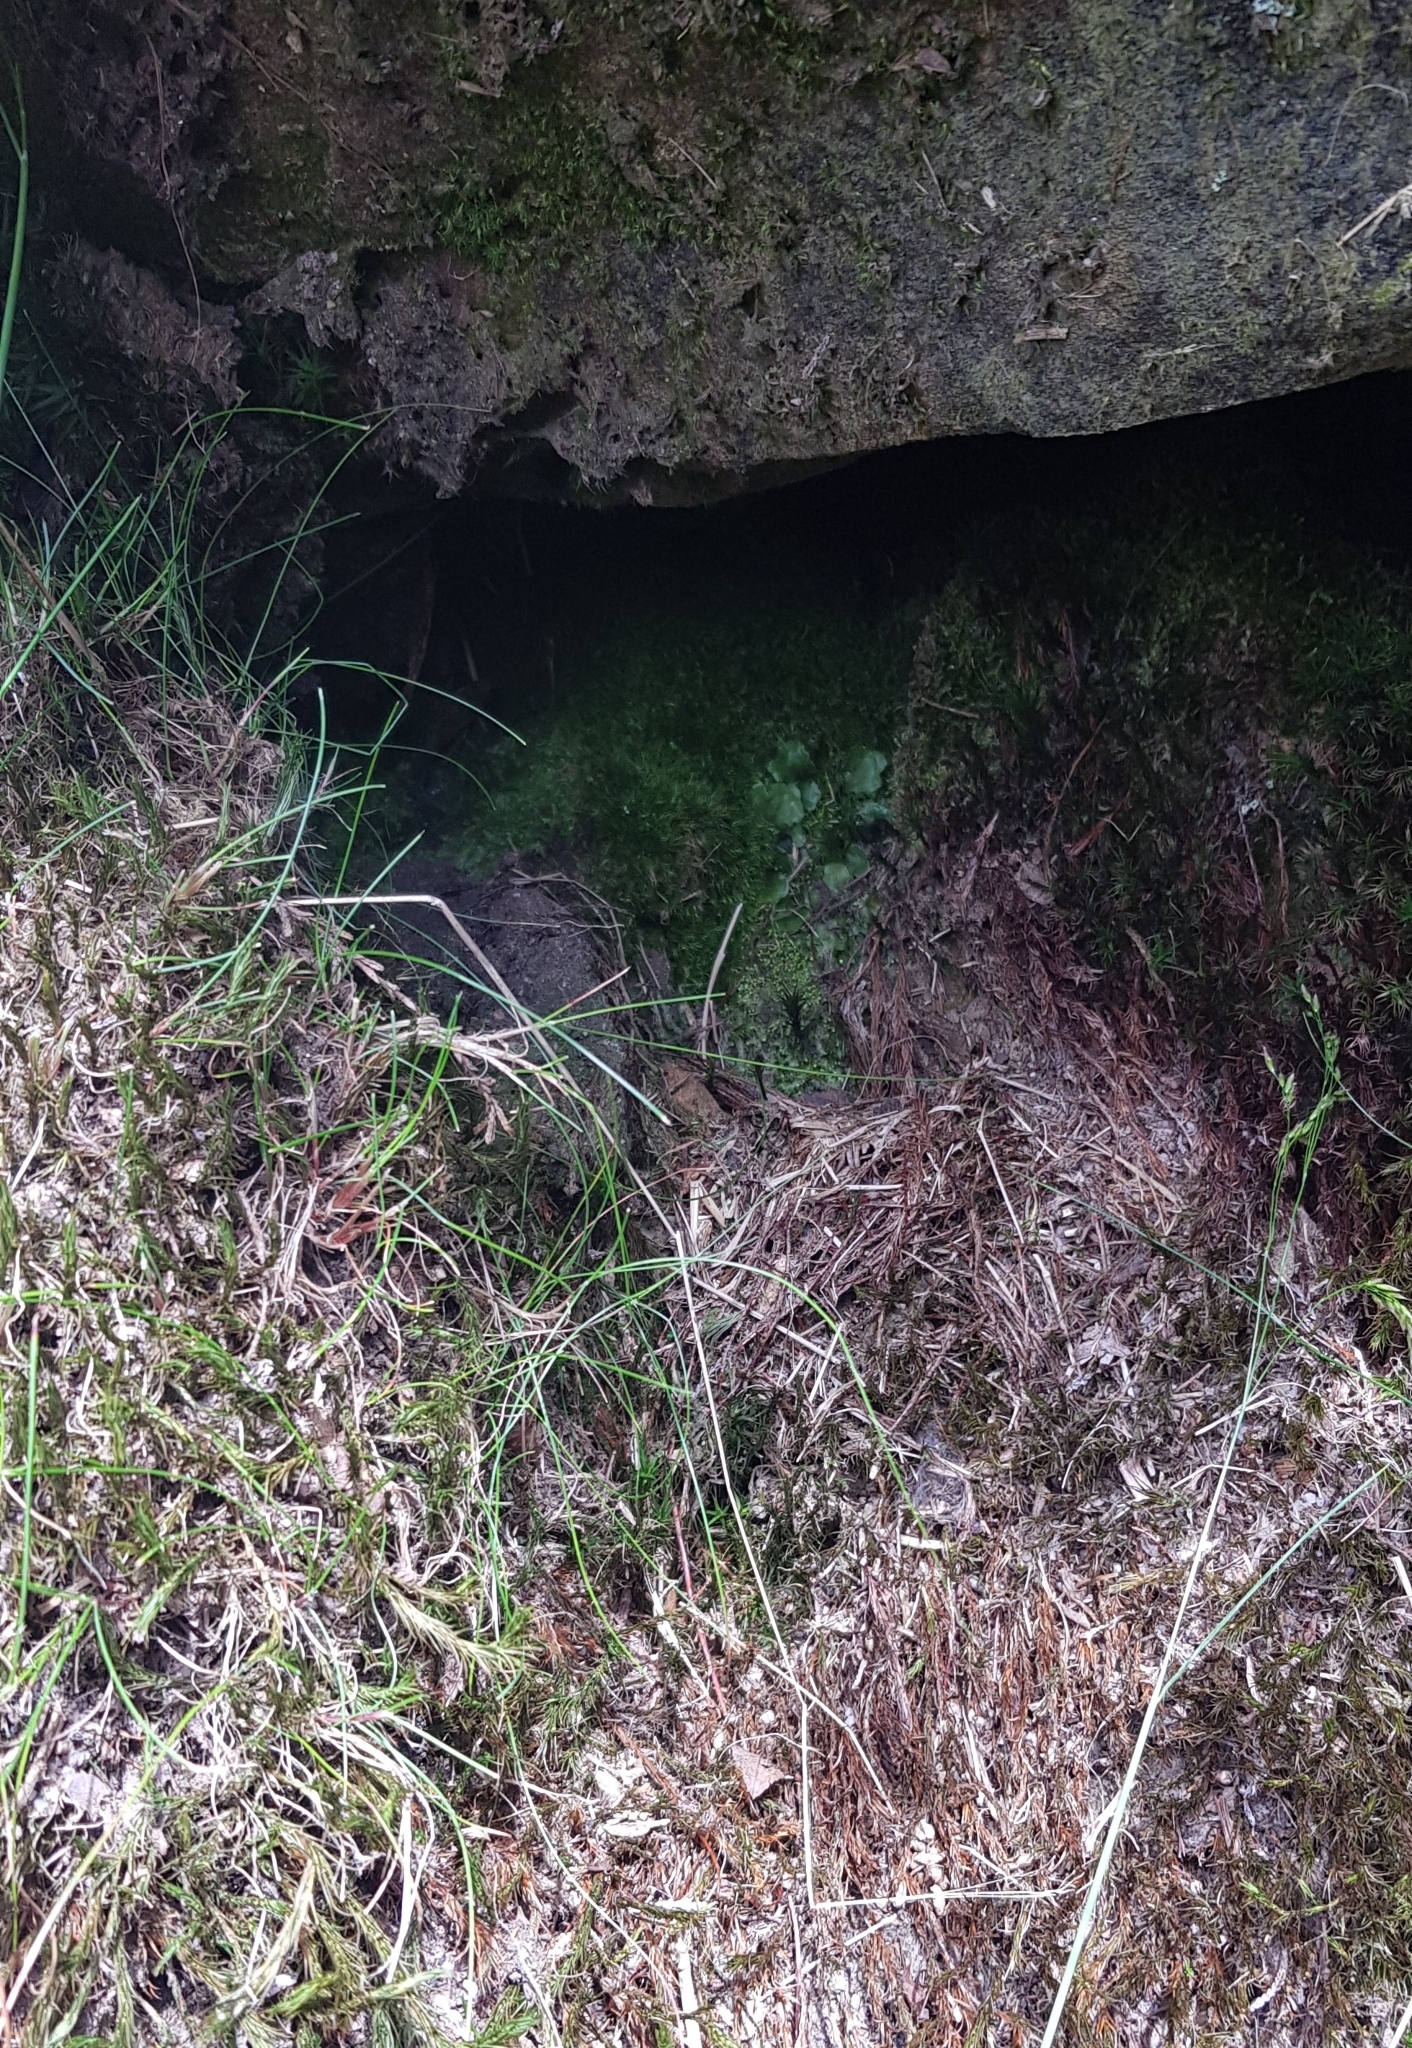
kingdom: Plantae
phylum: Bryophyta
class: Bryopsida
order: Dicranales
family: Dicranellaceae
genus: Dicranella
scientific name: Dicranella heteromalla
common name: Silky forklet moss
